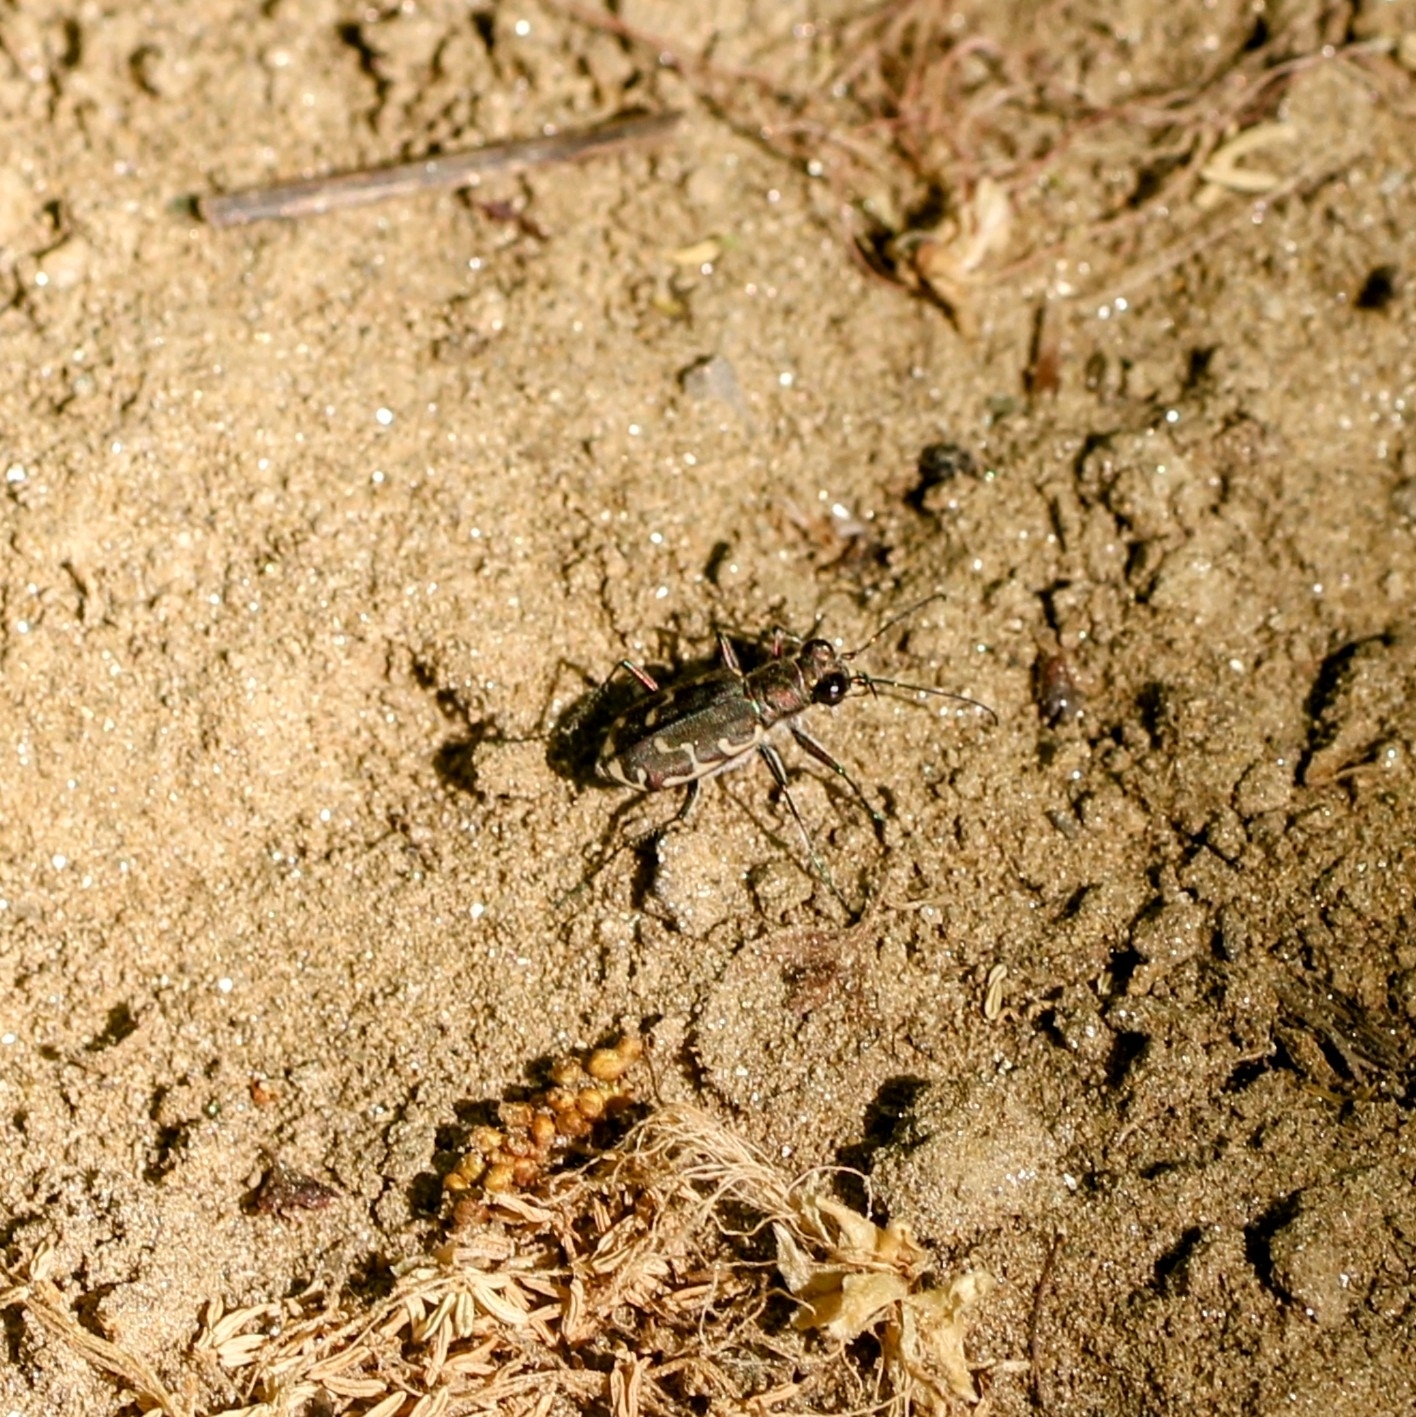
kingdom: Animalia
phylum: Arthropoda
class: Insecta
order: Coleoptera
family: Carabidae
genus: Cicindela
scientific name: Cicindela repanda
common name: Bronzed tiger beetle
